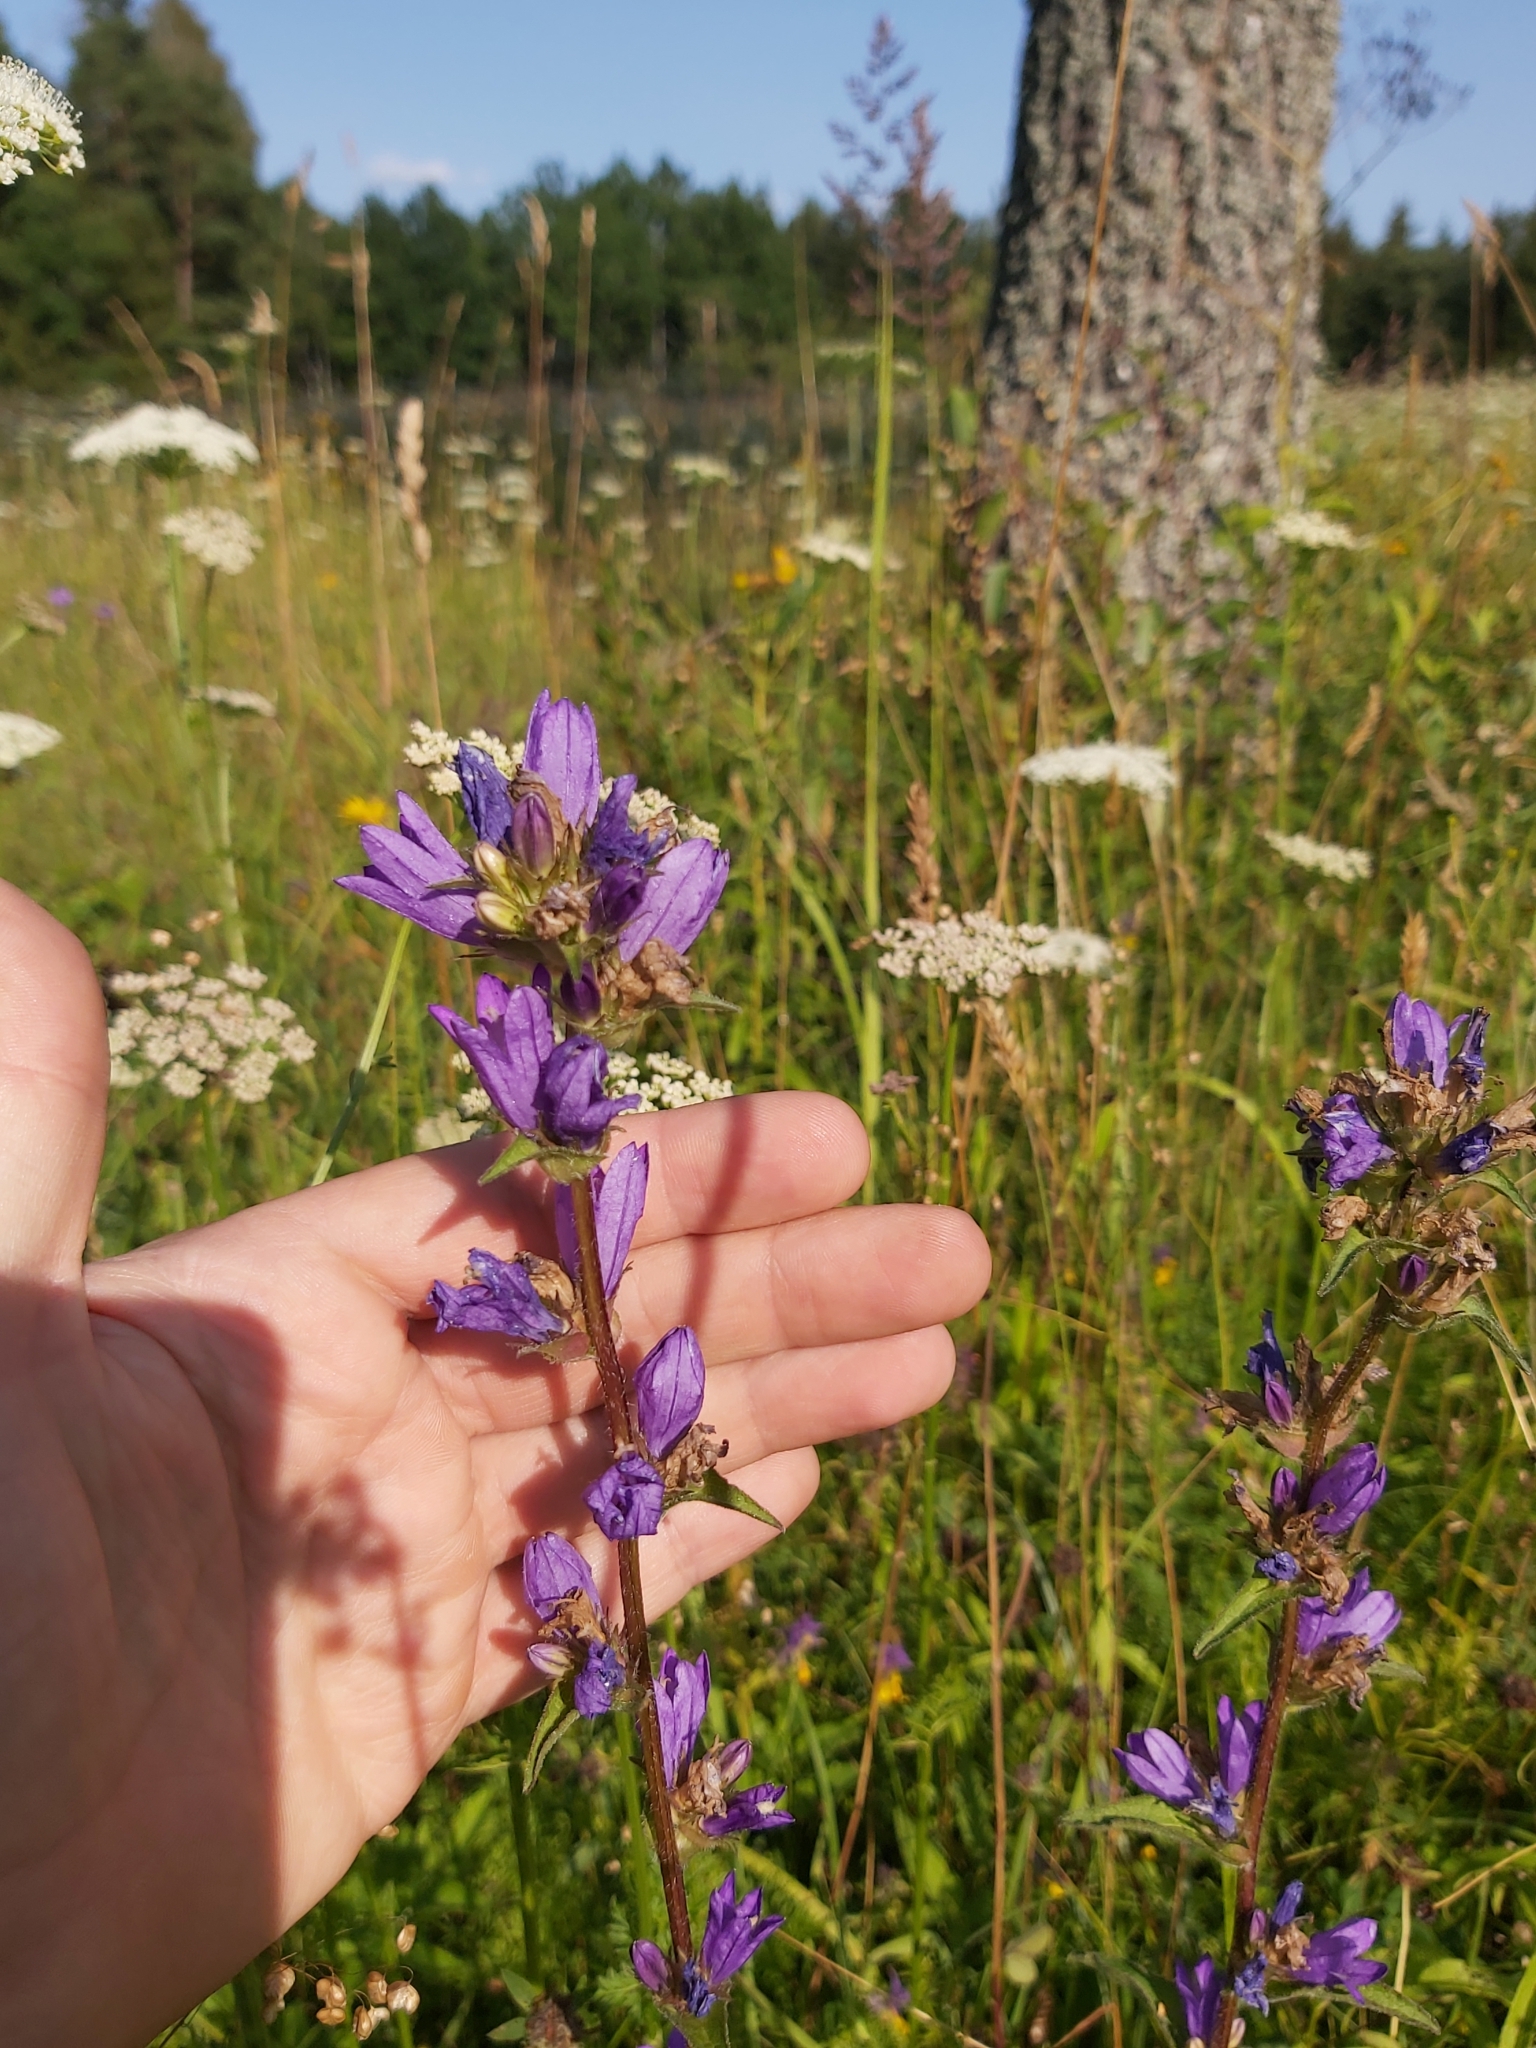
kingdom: Plantae
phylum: Tracheophyta
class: Magnoliopsida
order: Asterales
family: Campanulaceae
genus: Campanula
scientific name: Campanula glomerata
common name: Clustered bellflower
